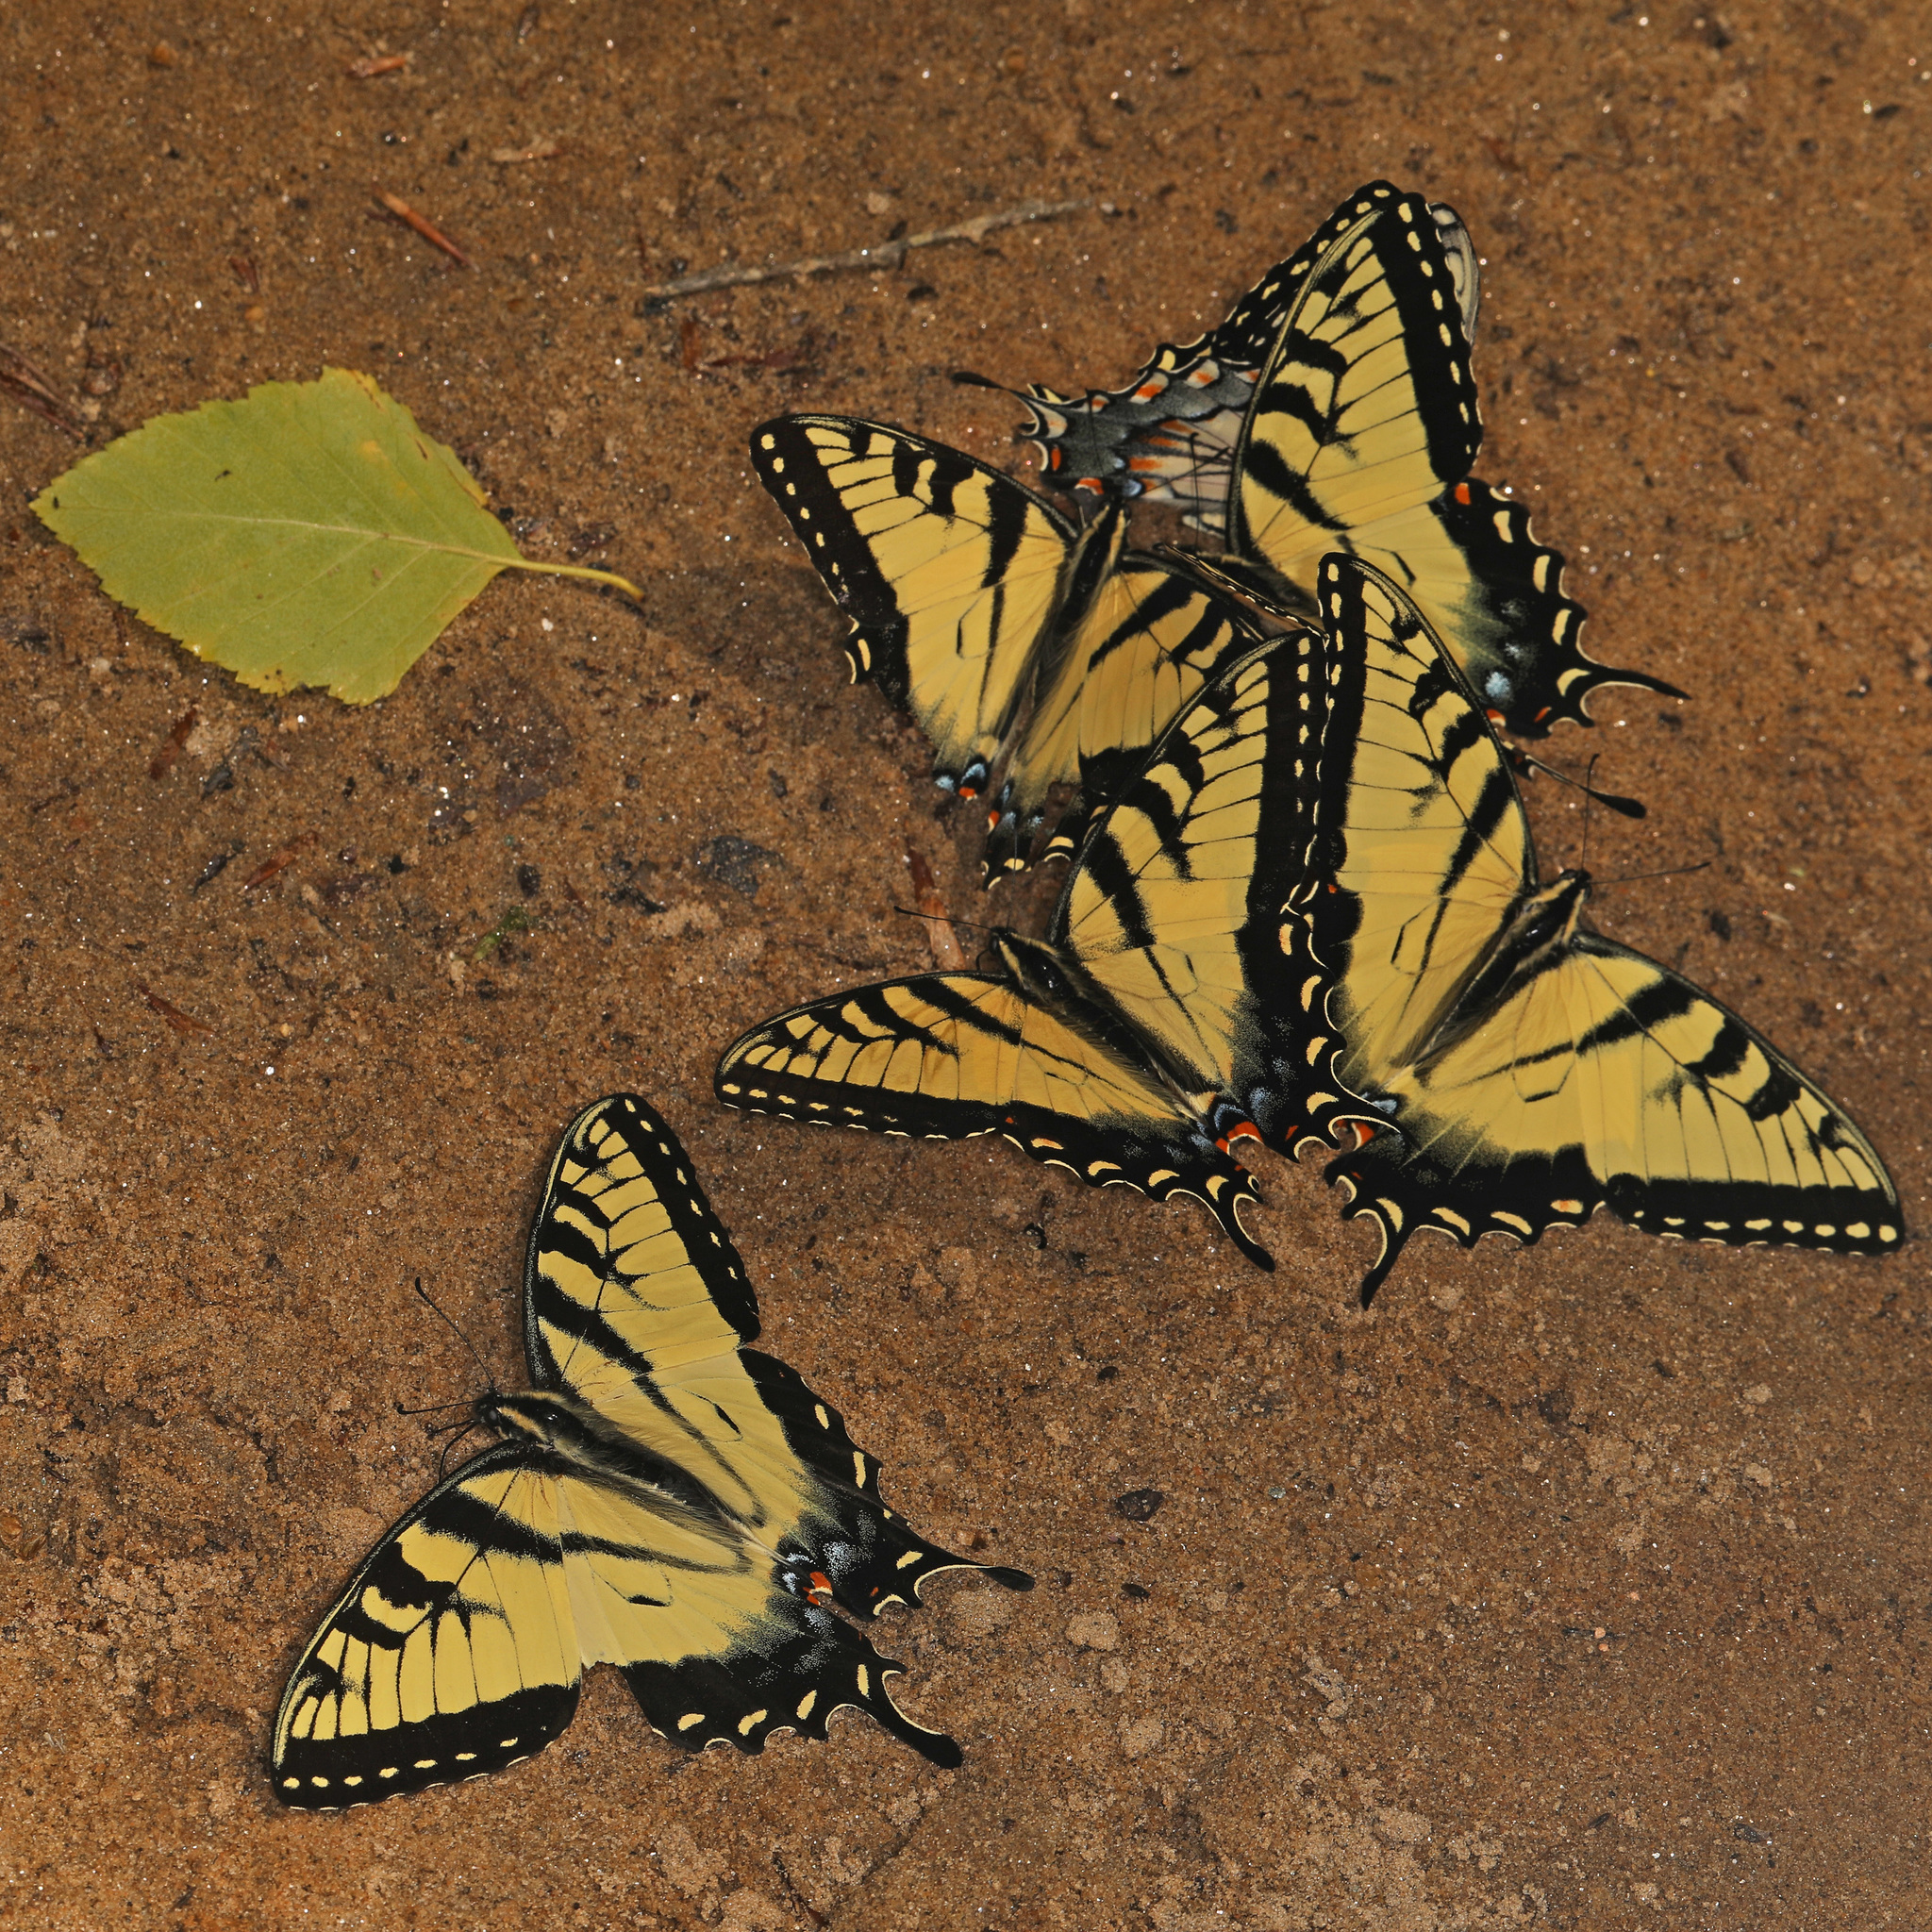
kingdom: Animalia
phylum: Arthropoda
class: Insecta
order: Lepidoptera
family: Papilionidae
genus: Papilio
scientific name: Papilio glaucus
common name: Tiger swallowtail
